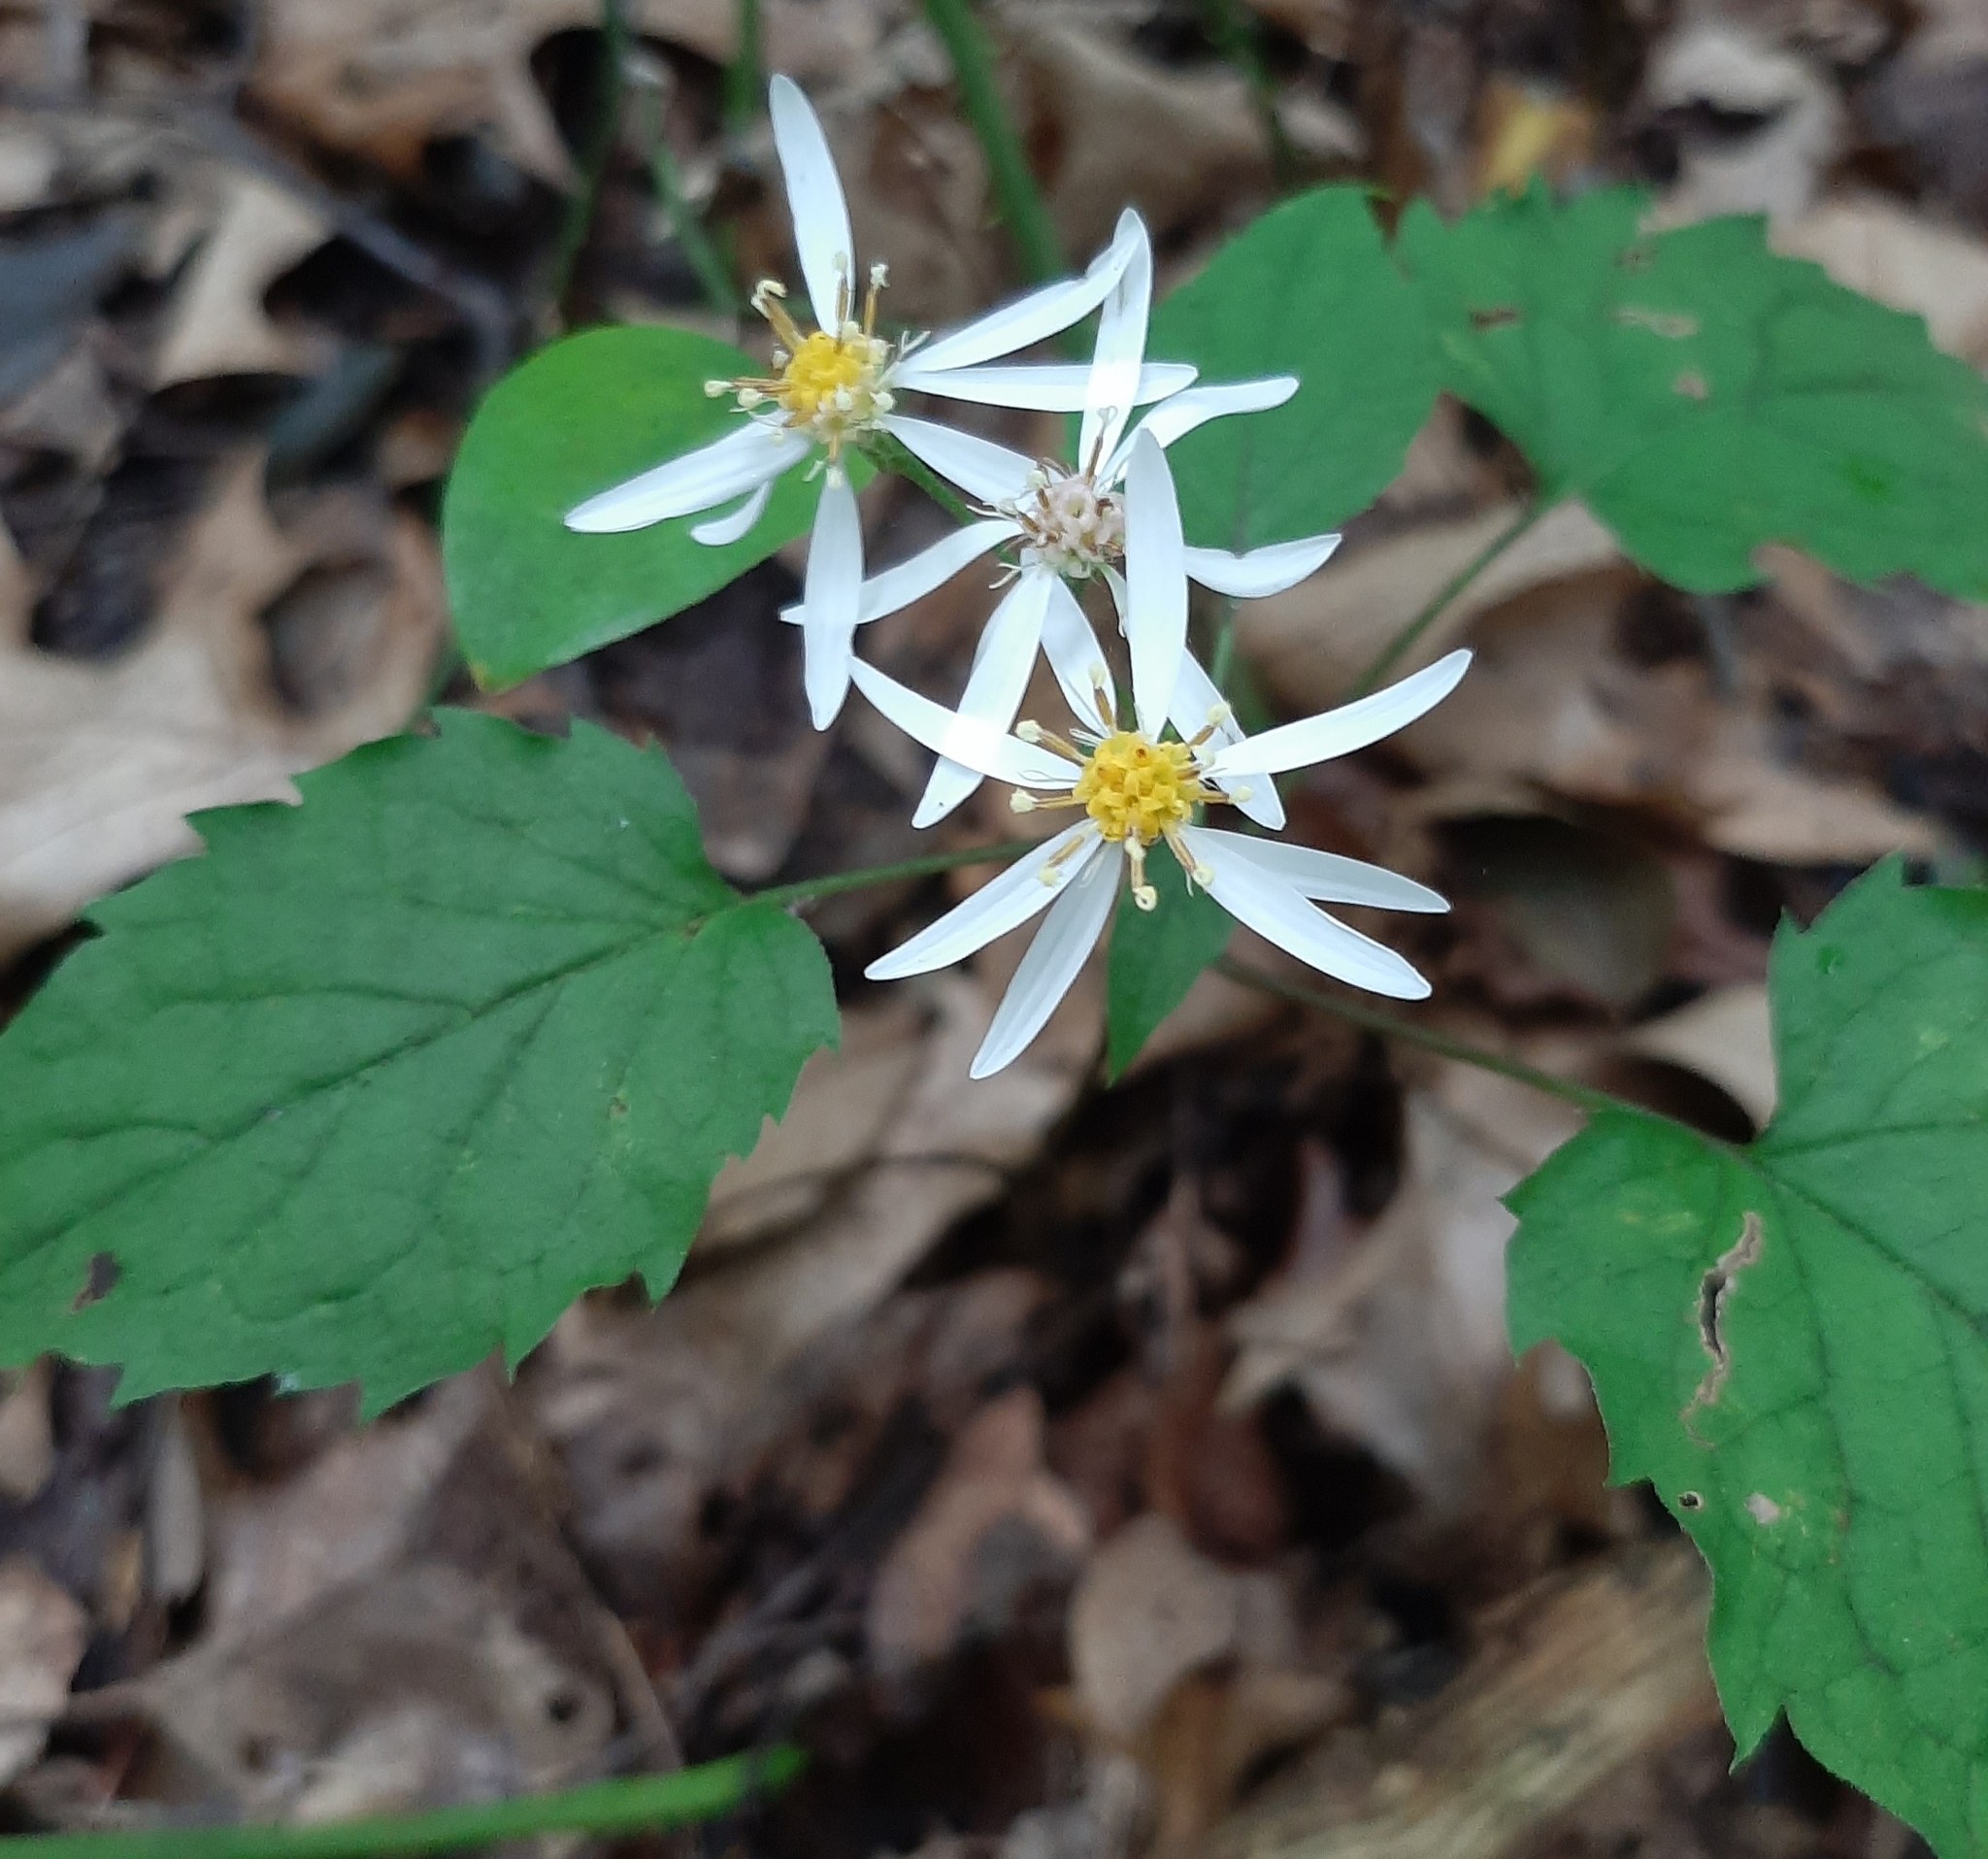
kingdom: Plantae
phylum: Tracheophyta
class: Magnoliopsida
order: Asterales
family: Asteraceae
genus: Eurybia
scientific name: Eurybia divaricata
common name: White wood aster
